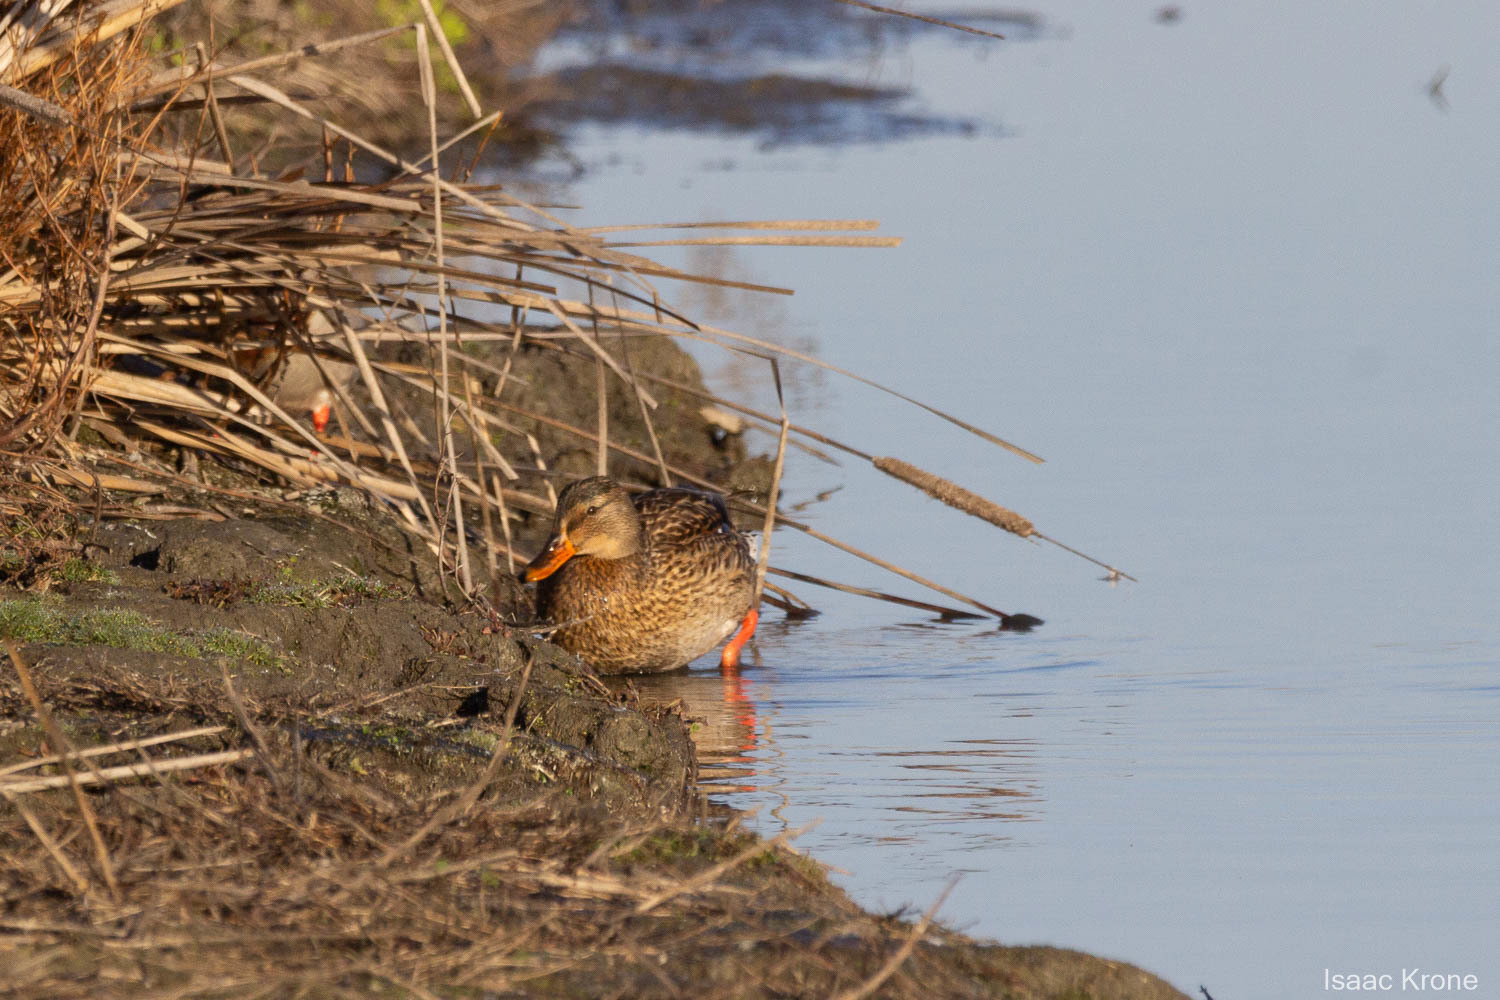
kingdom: Animalia
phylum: Chordata
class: Aves
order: Anseriformes
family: Anatidae
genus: Anas
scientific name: Anas platyrhynchos
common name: Mallard
